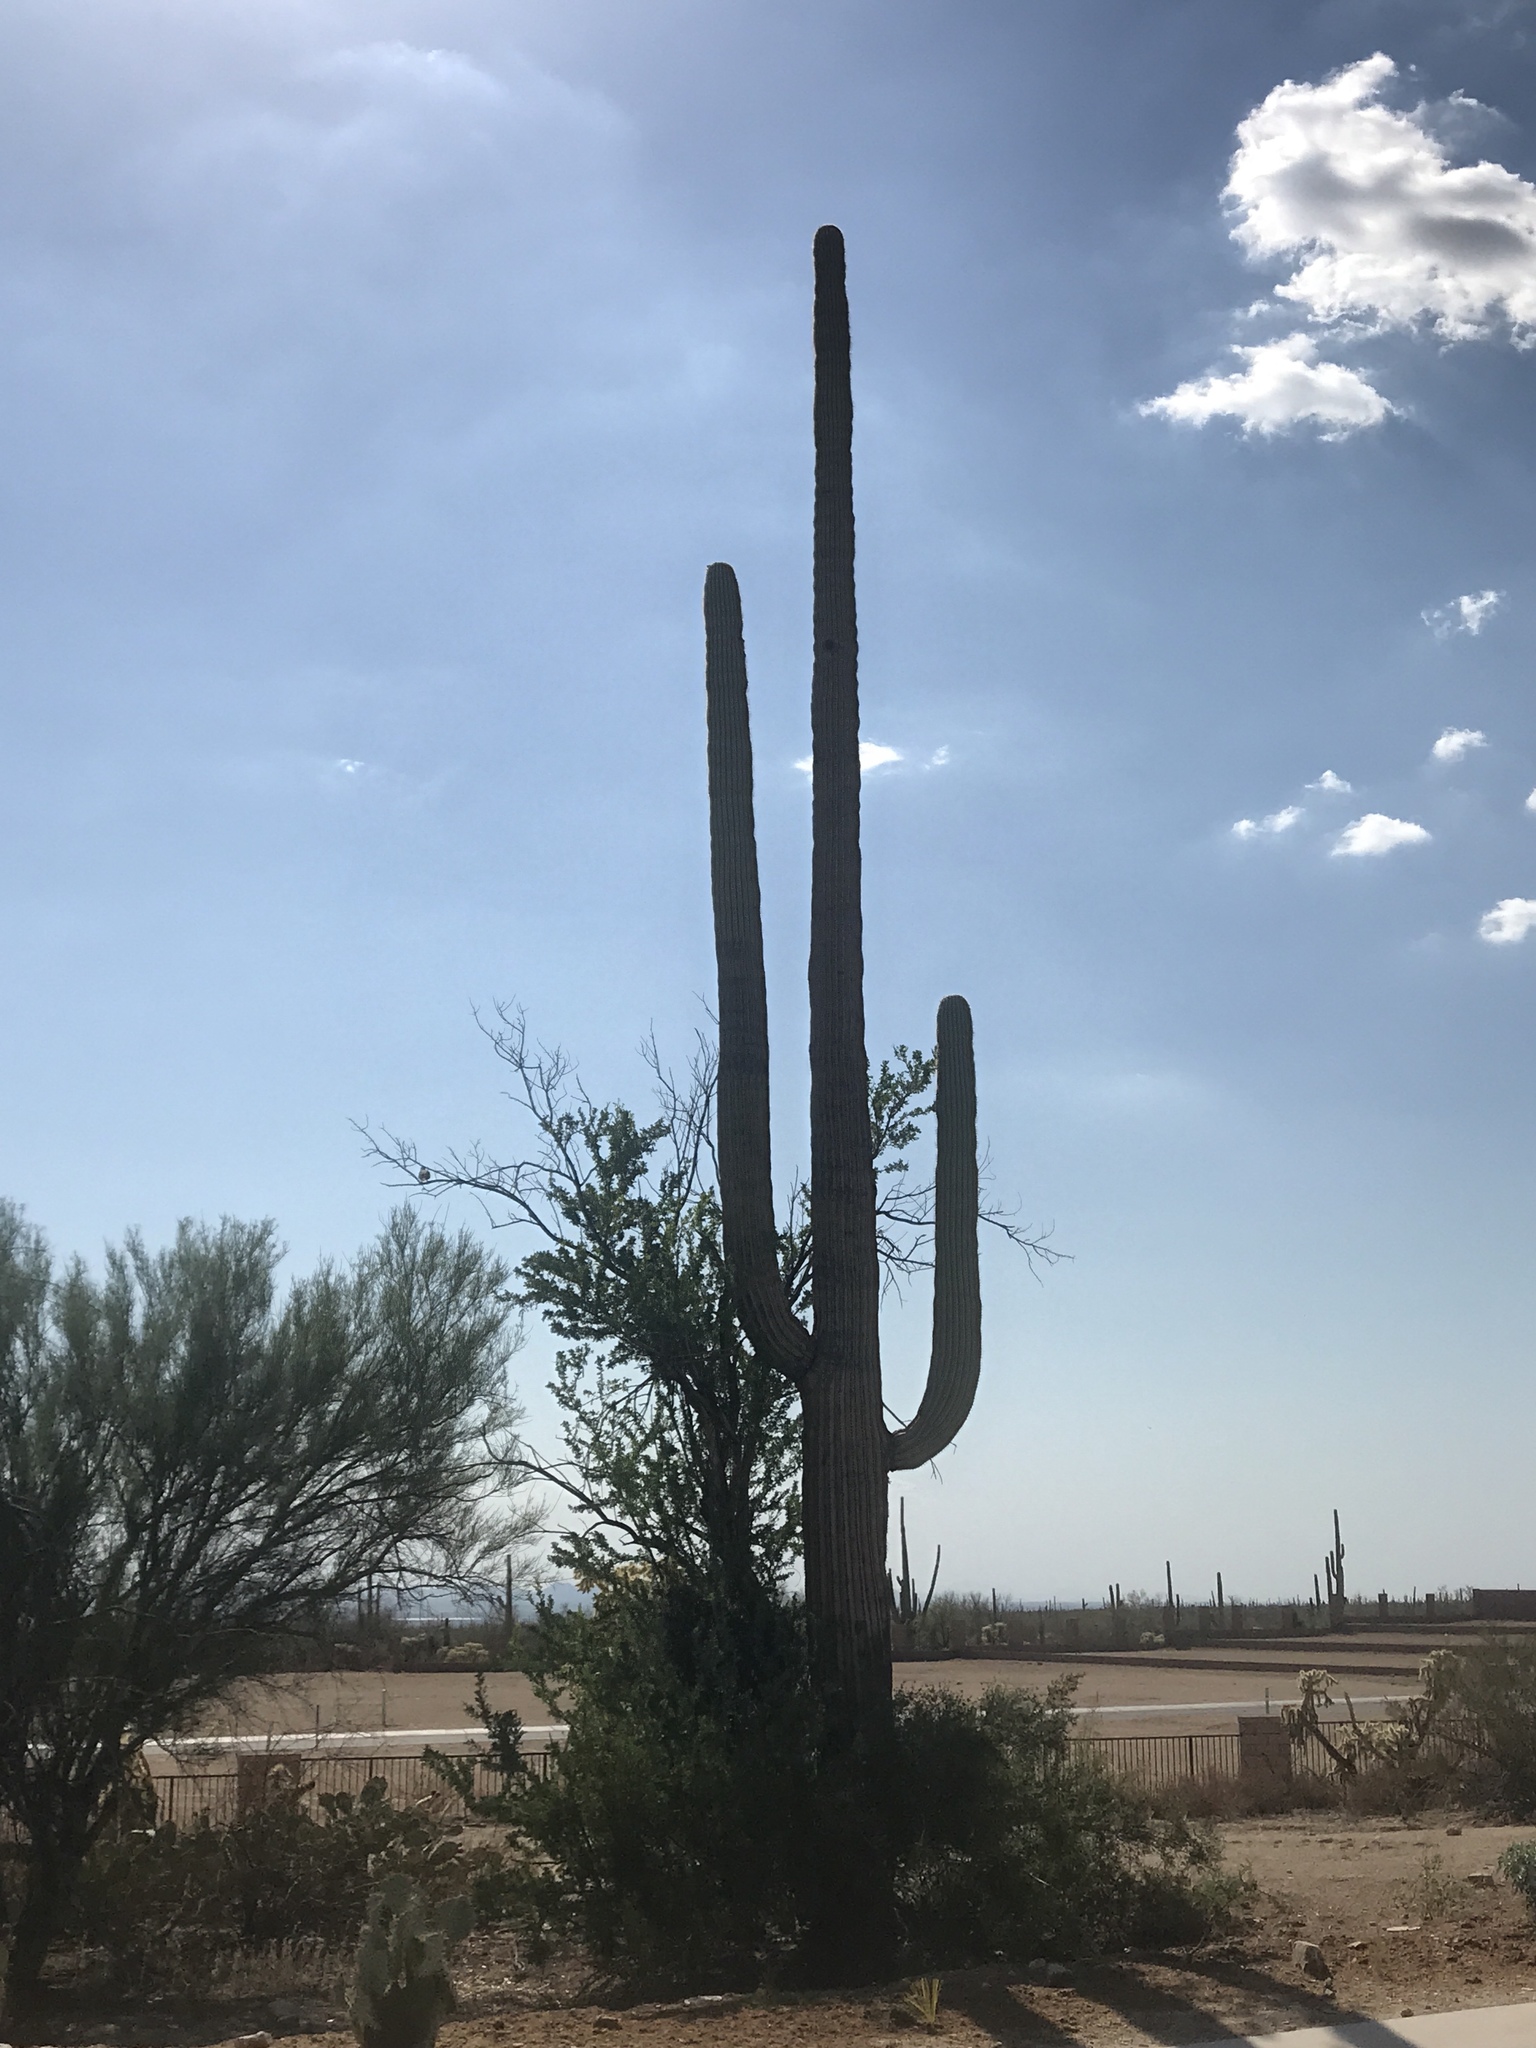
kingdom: Plantae
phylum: Tracheophyta
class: Magnoliopsida
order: Caryophyllales
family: Cactaceae
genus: Carnegiea
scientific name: Carnegiea gigantea
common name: Saguaro
